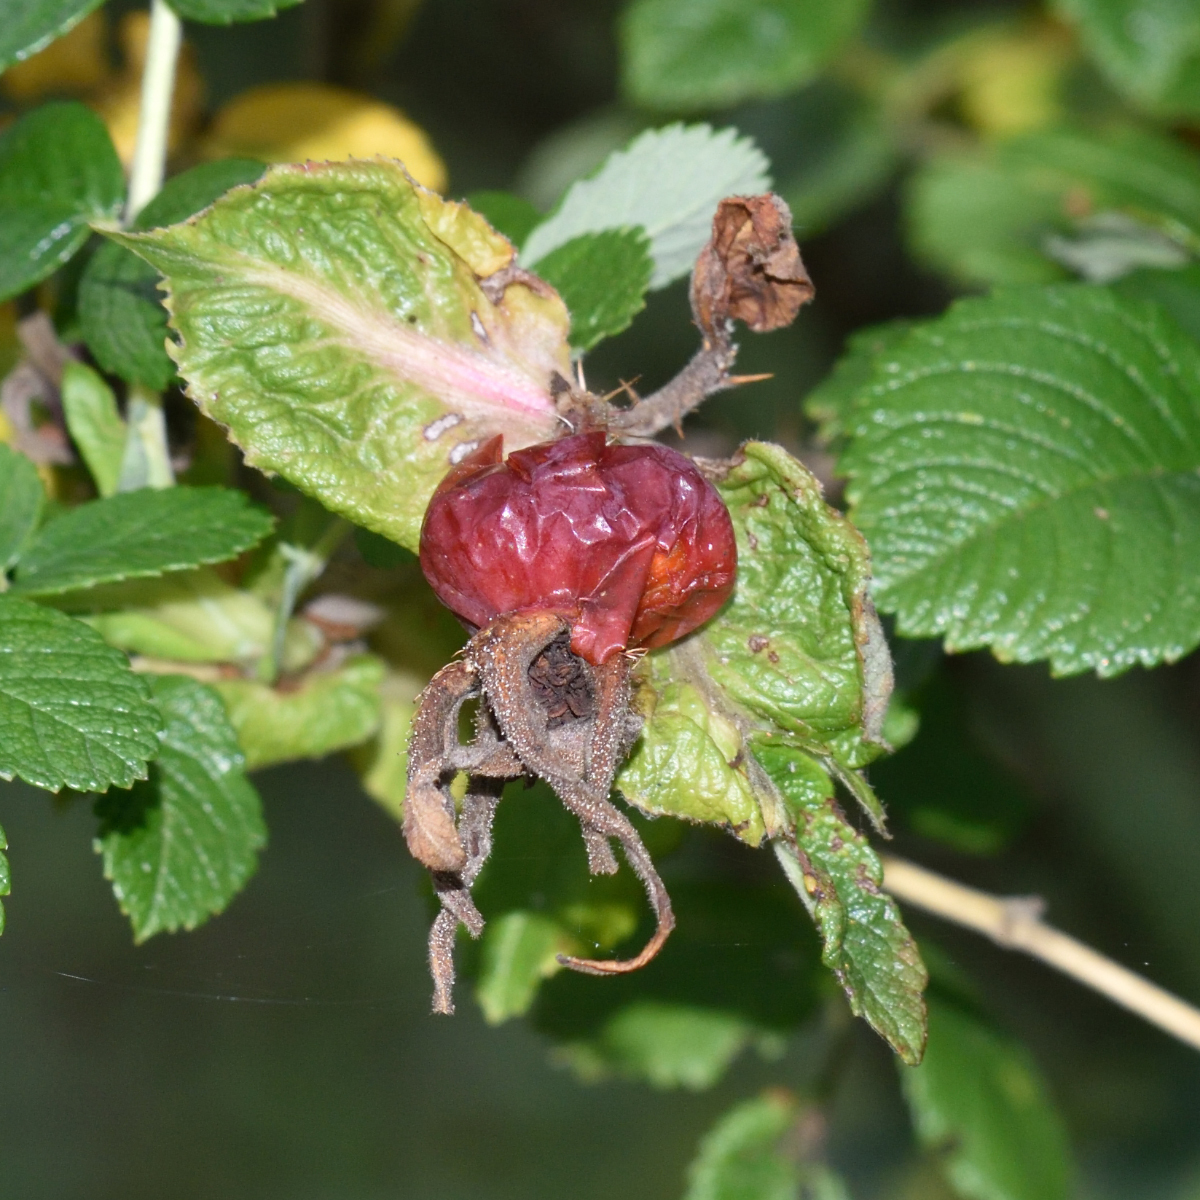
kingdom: Plantae
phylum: Tracheophyta
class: Magnoliopsida
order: Rosales
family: Rosaceae
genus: Rosa
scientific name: Rosa rugosa
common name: Japanese rose
